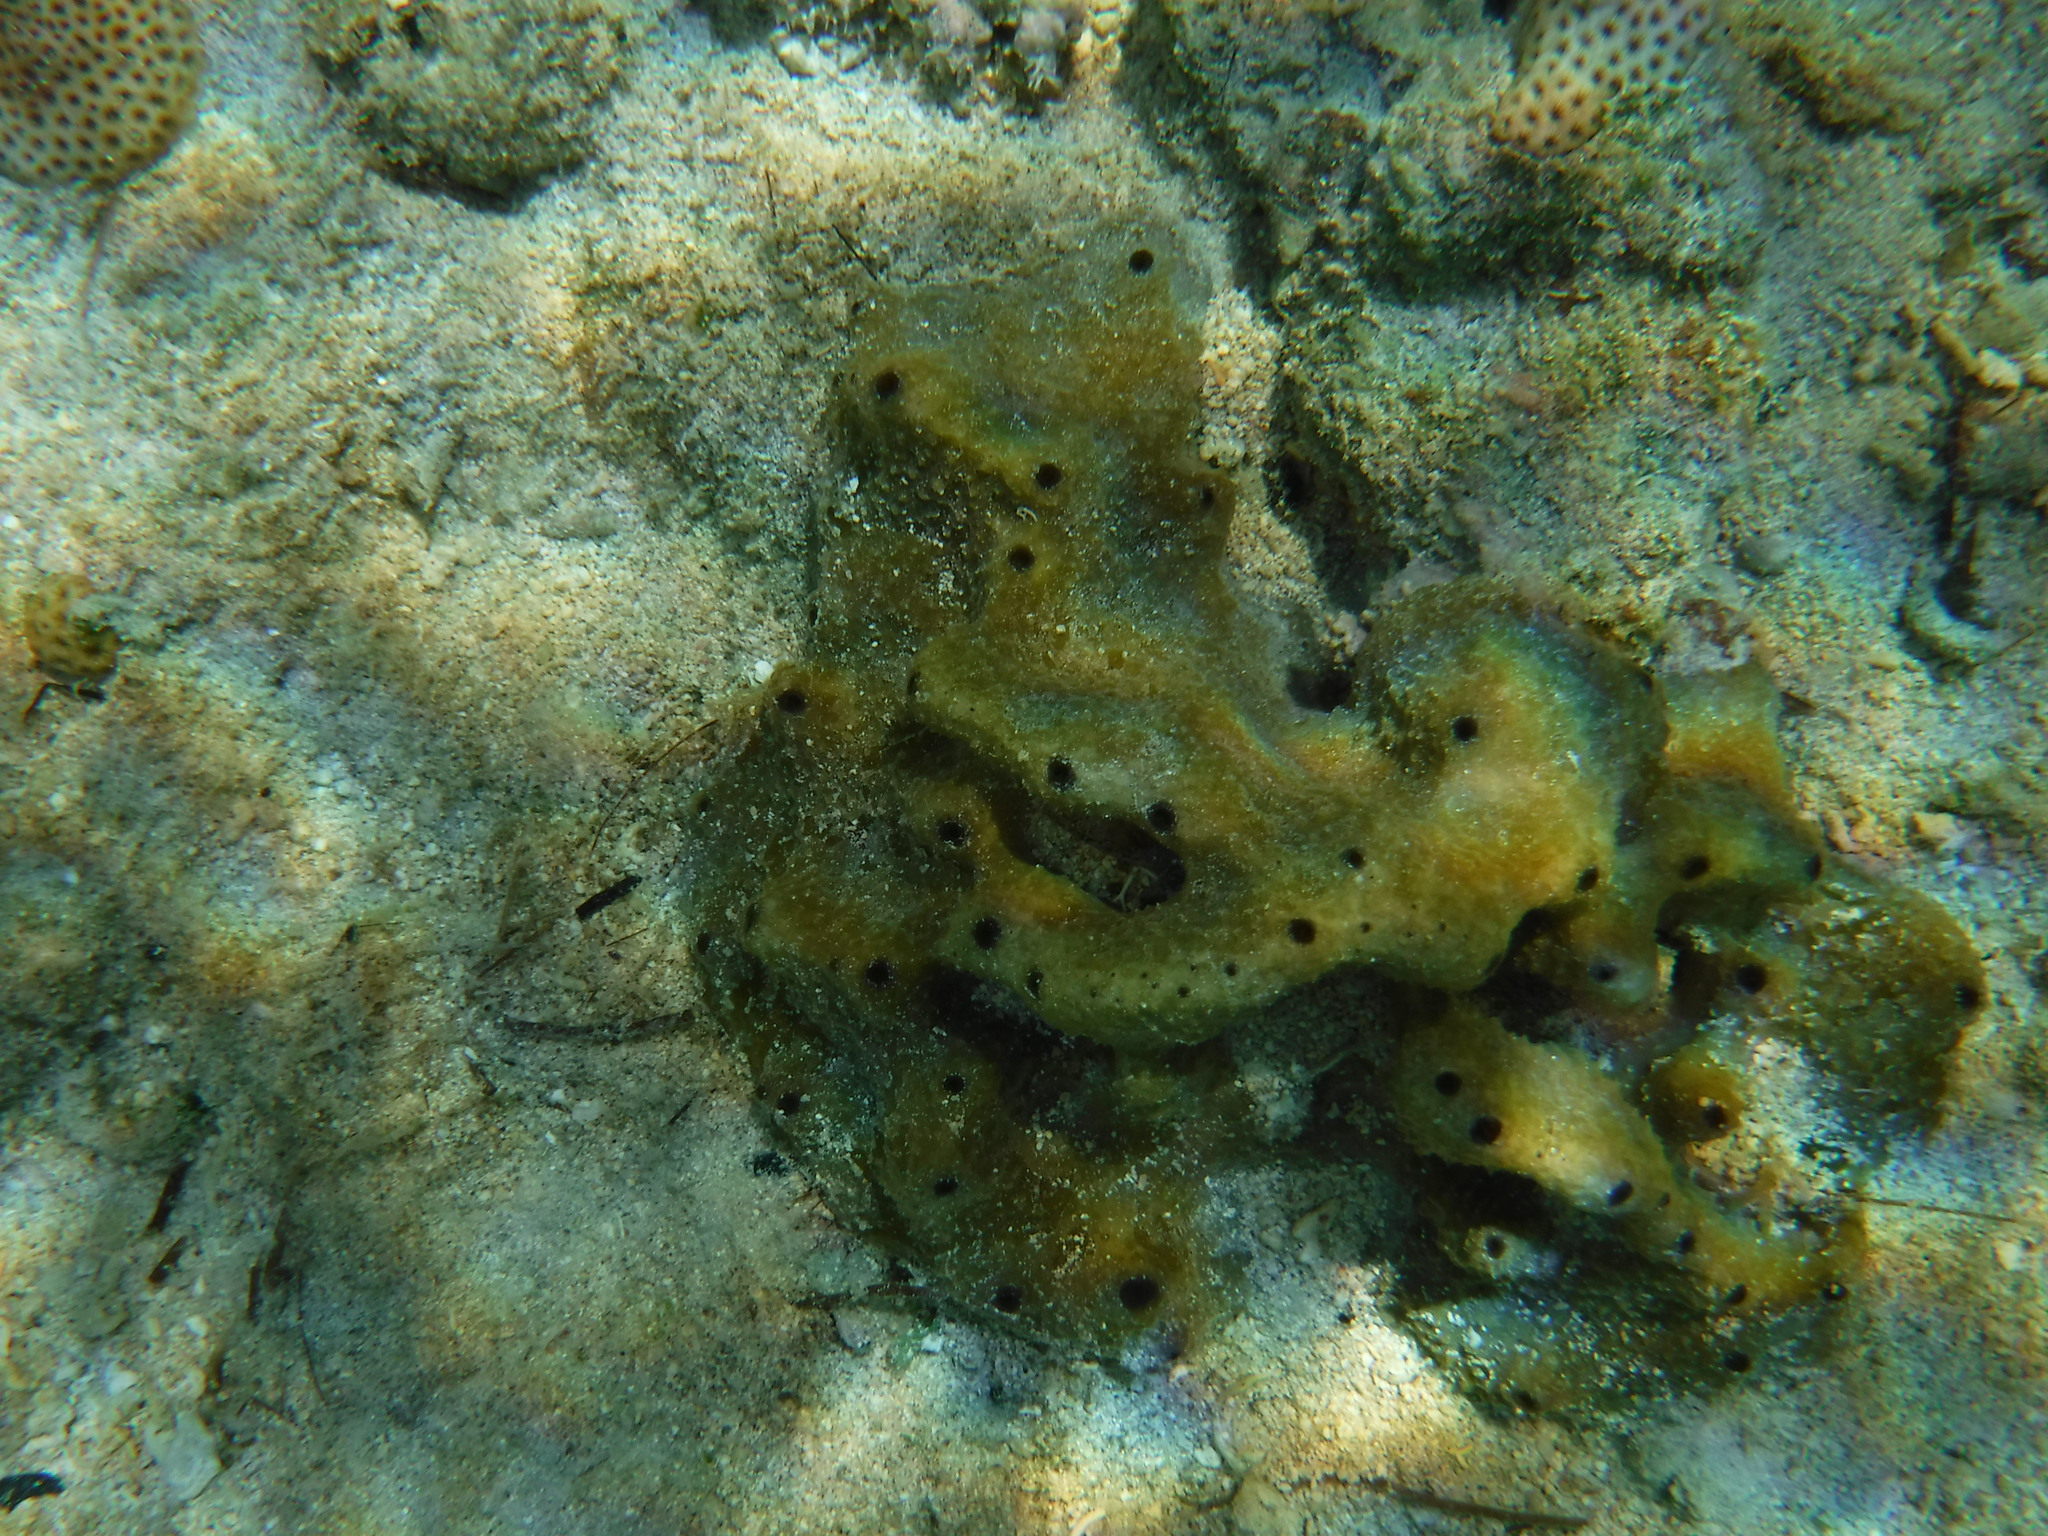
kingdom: Animalia
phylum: Porifera
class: Demospongiae
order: Dictyoceratida
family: Irciniidae
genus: Ircinia
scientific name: Ircinia felix
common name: Stinker sponge
